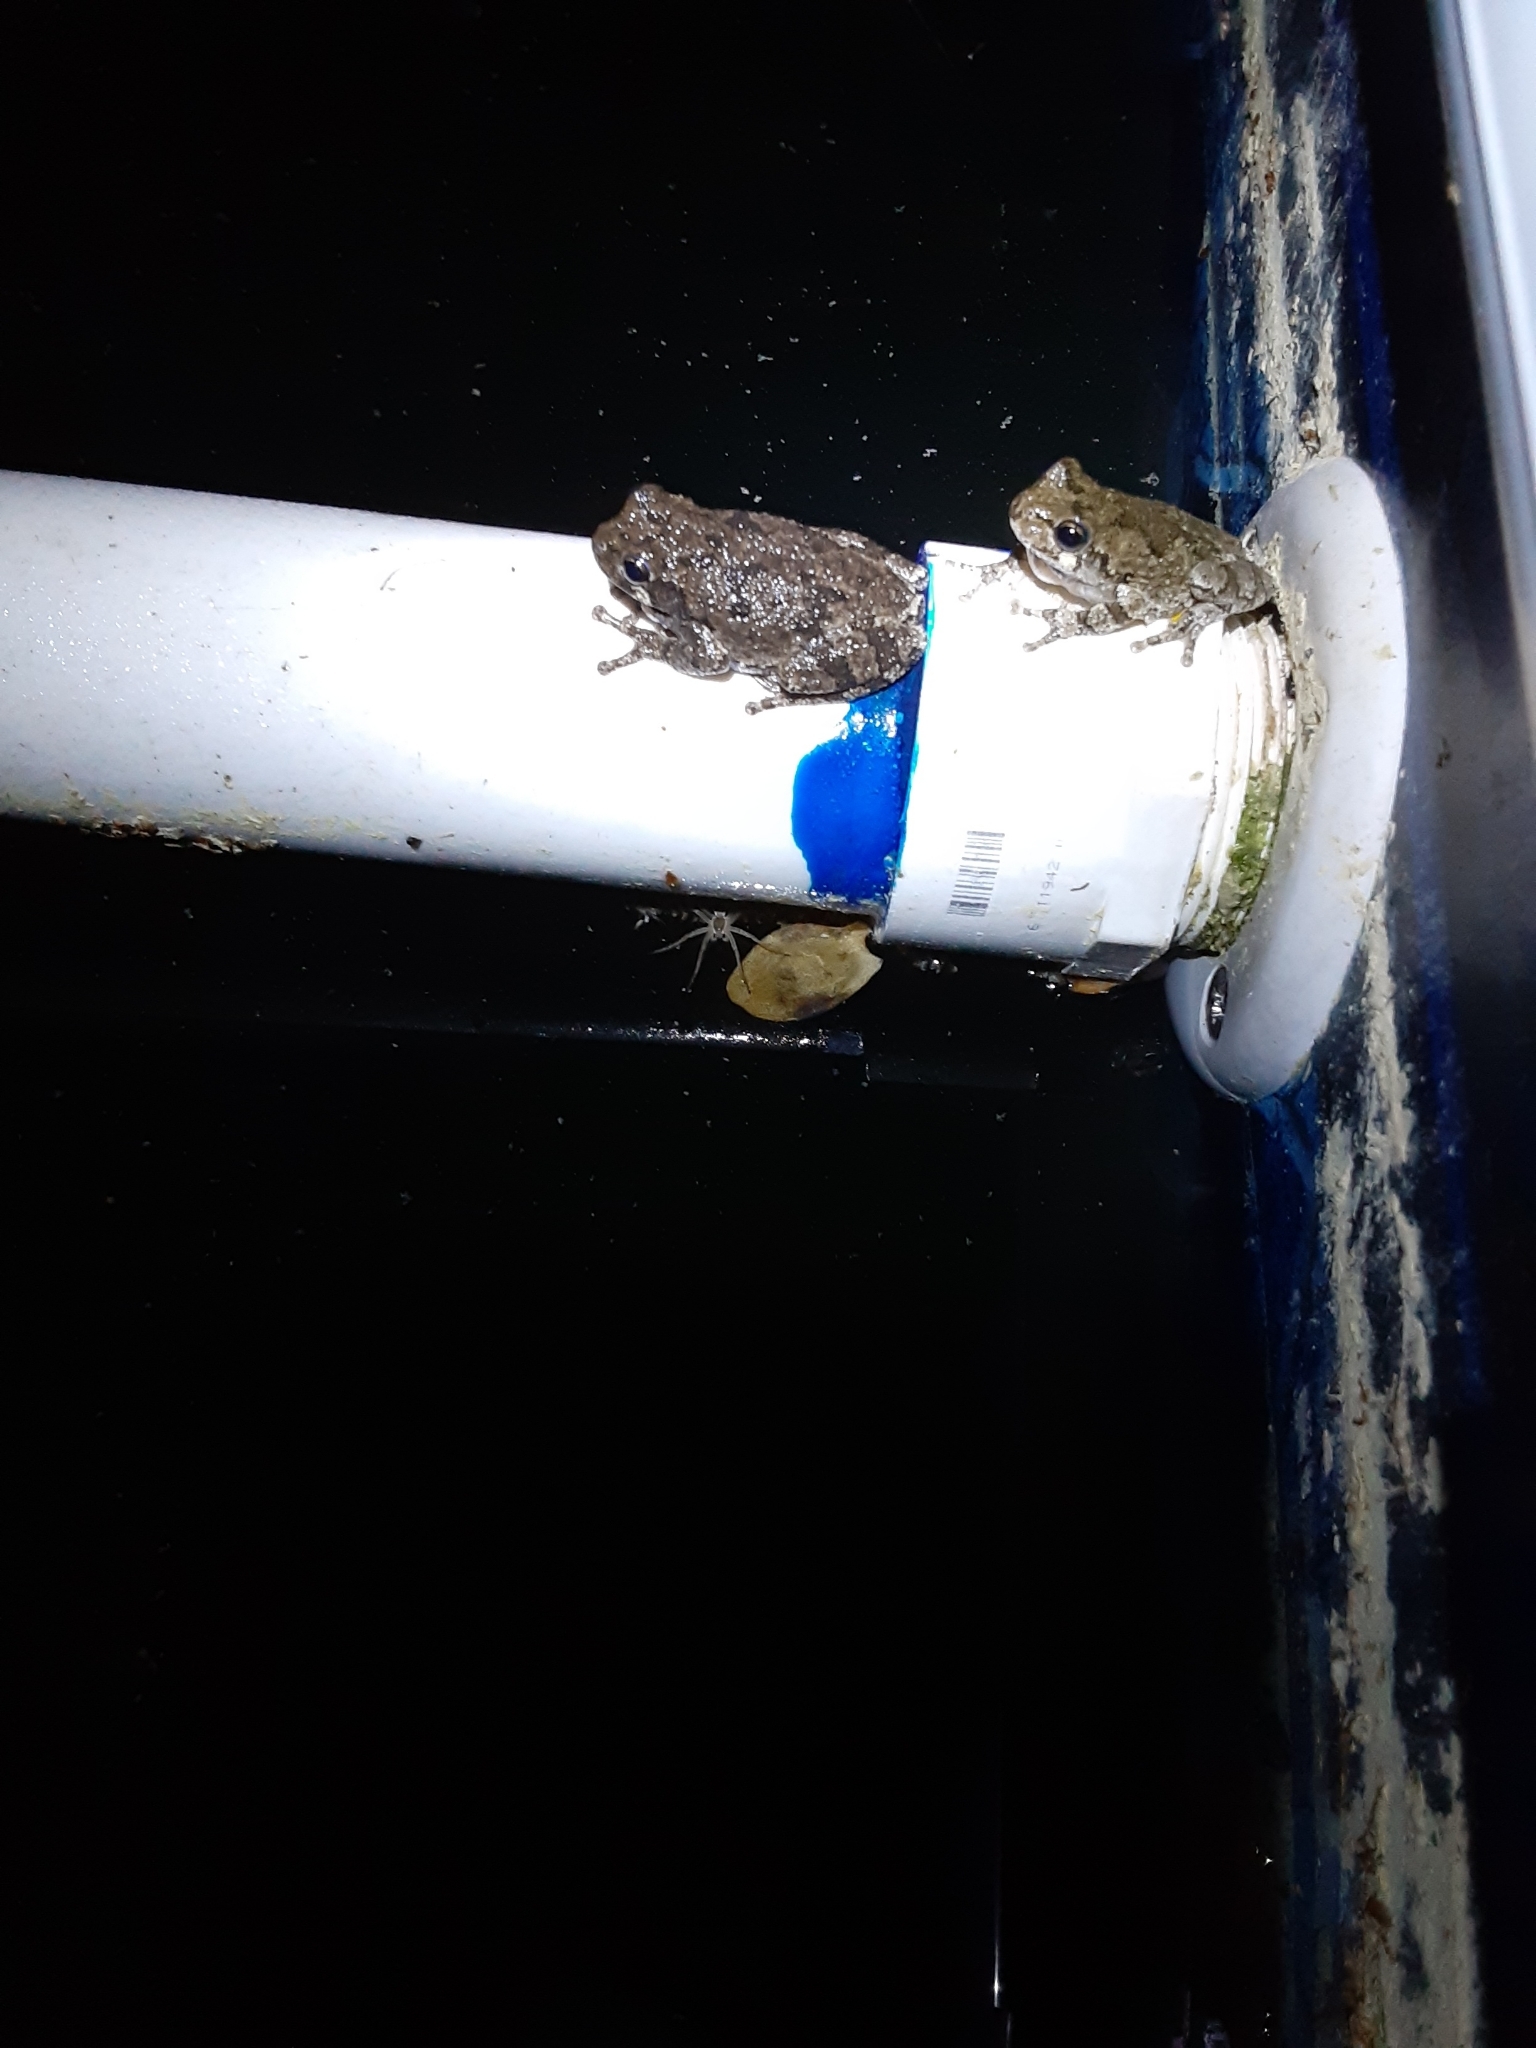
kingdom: Animalia
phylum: Chordata
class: Amphibia
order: Anura
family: Hylidae
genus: Dryophytes
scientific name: Dryophytes chrysoscelis
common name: Cope's gray treefrog
